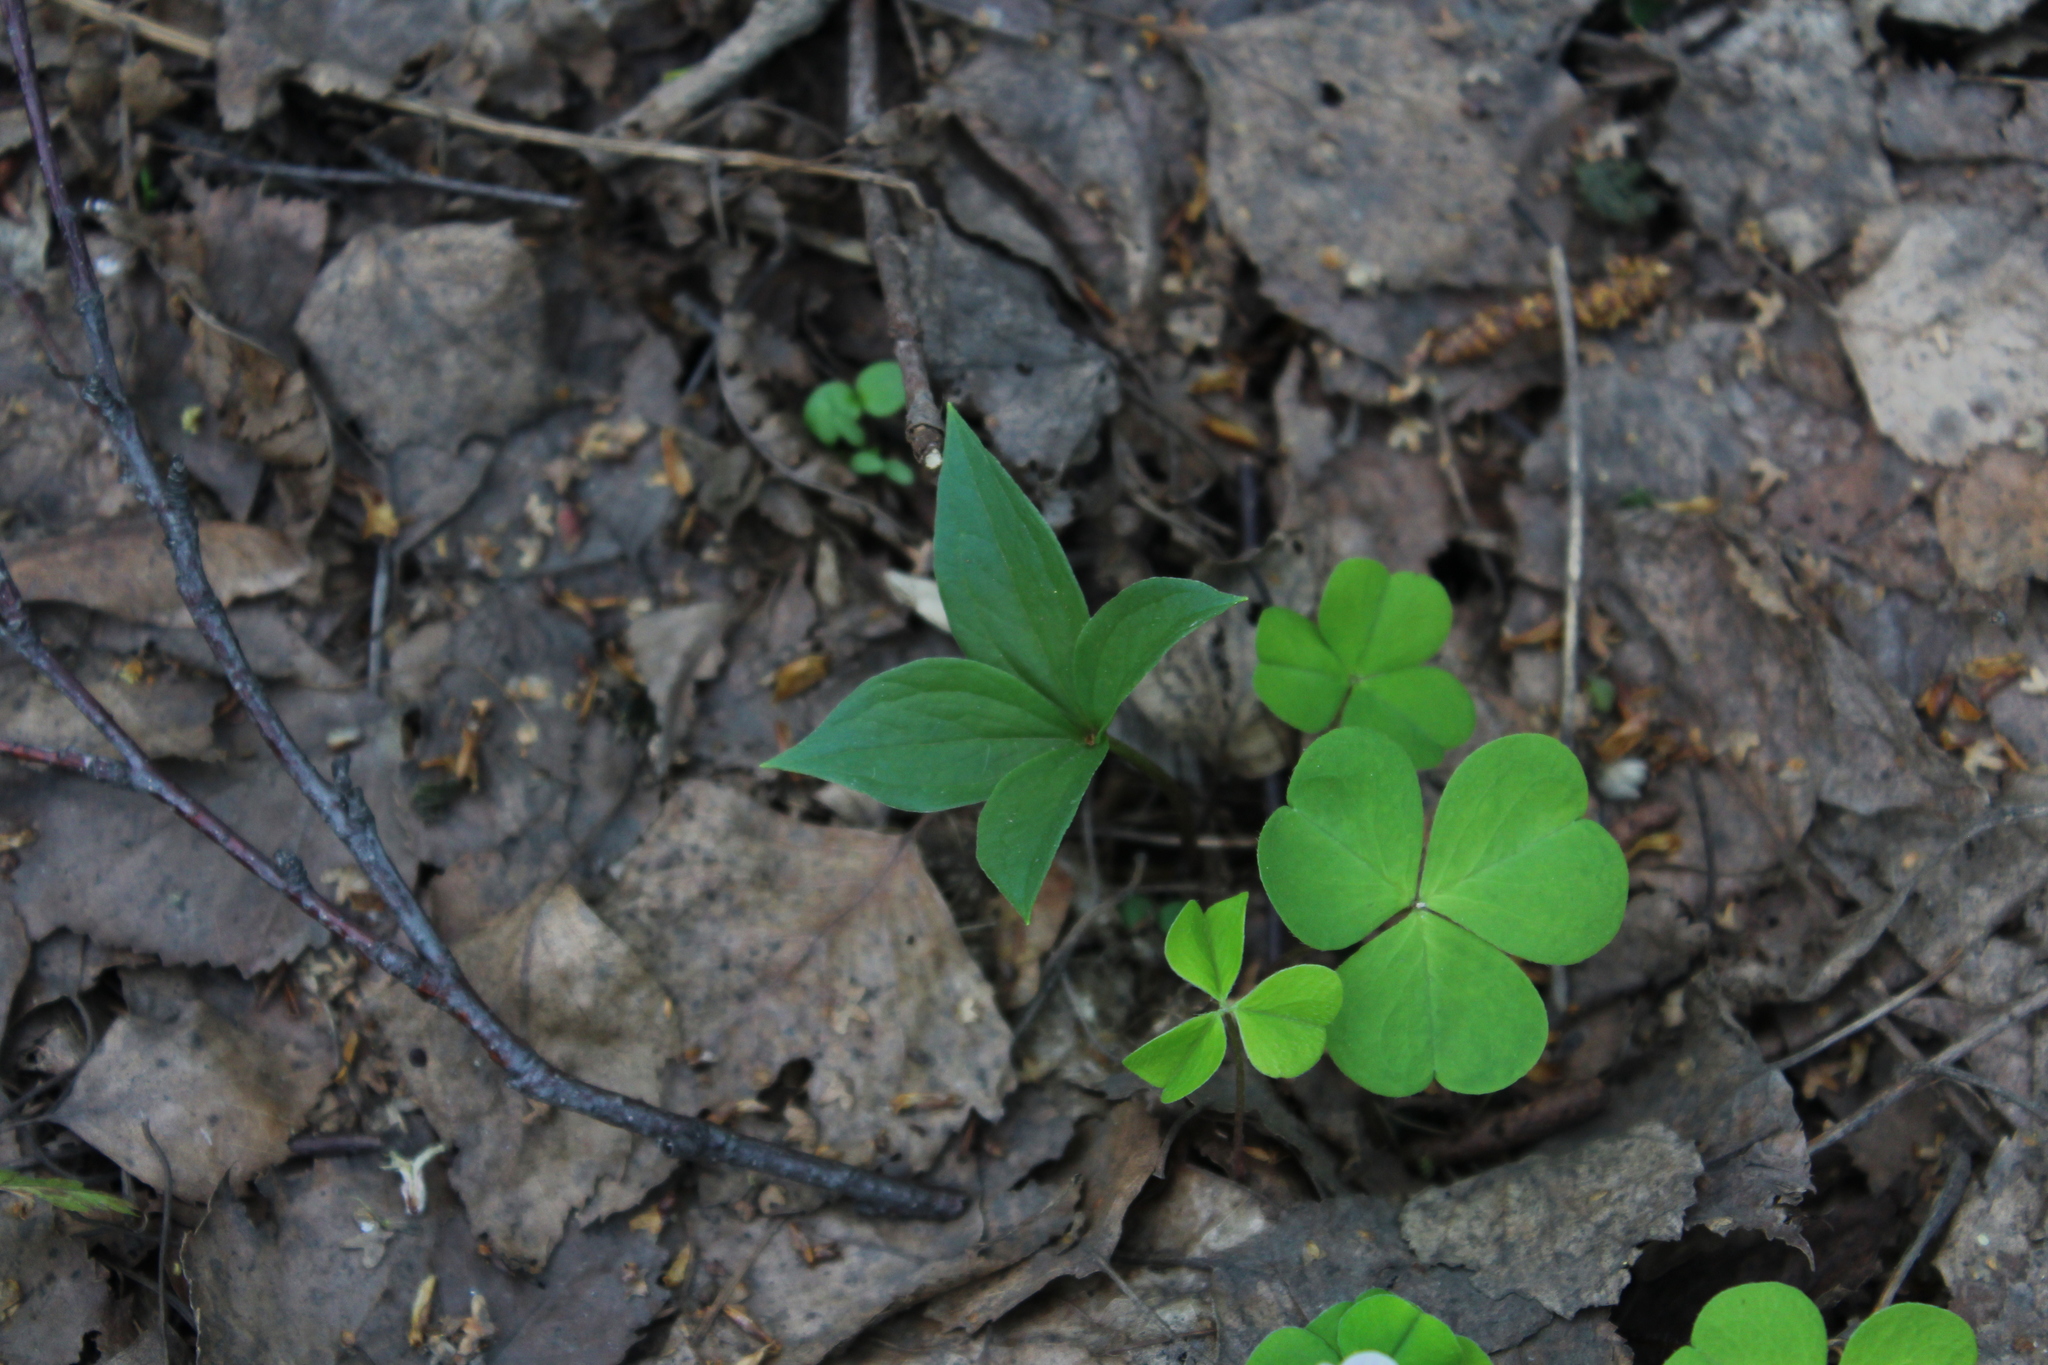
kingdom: Plantae
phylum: Tracheophyta
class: Liliopsida
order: Liliales
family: Melanthiaceae
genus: Paris
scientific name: Paris quadrifolia
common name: Herb-paris
